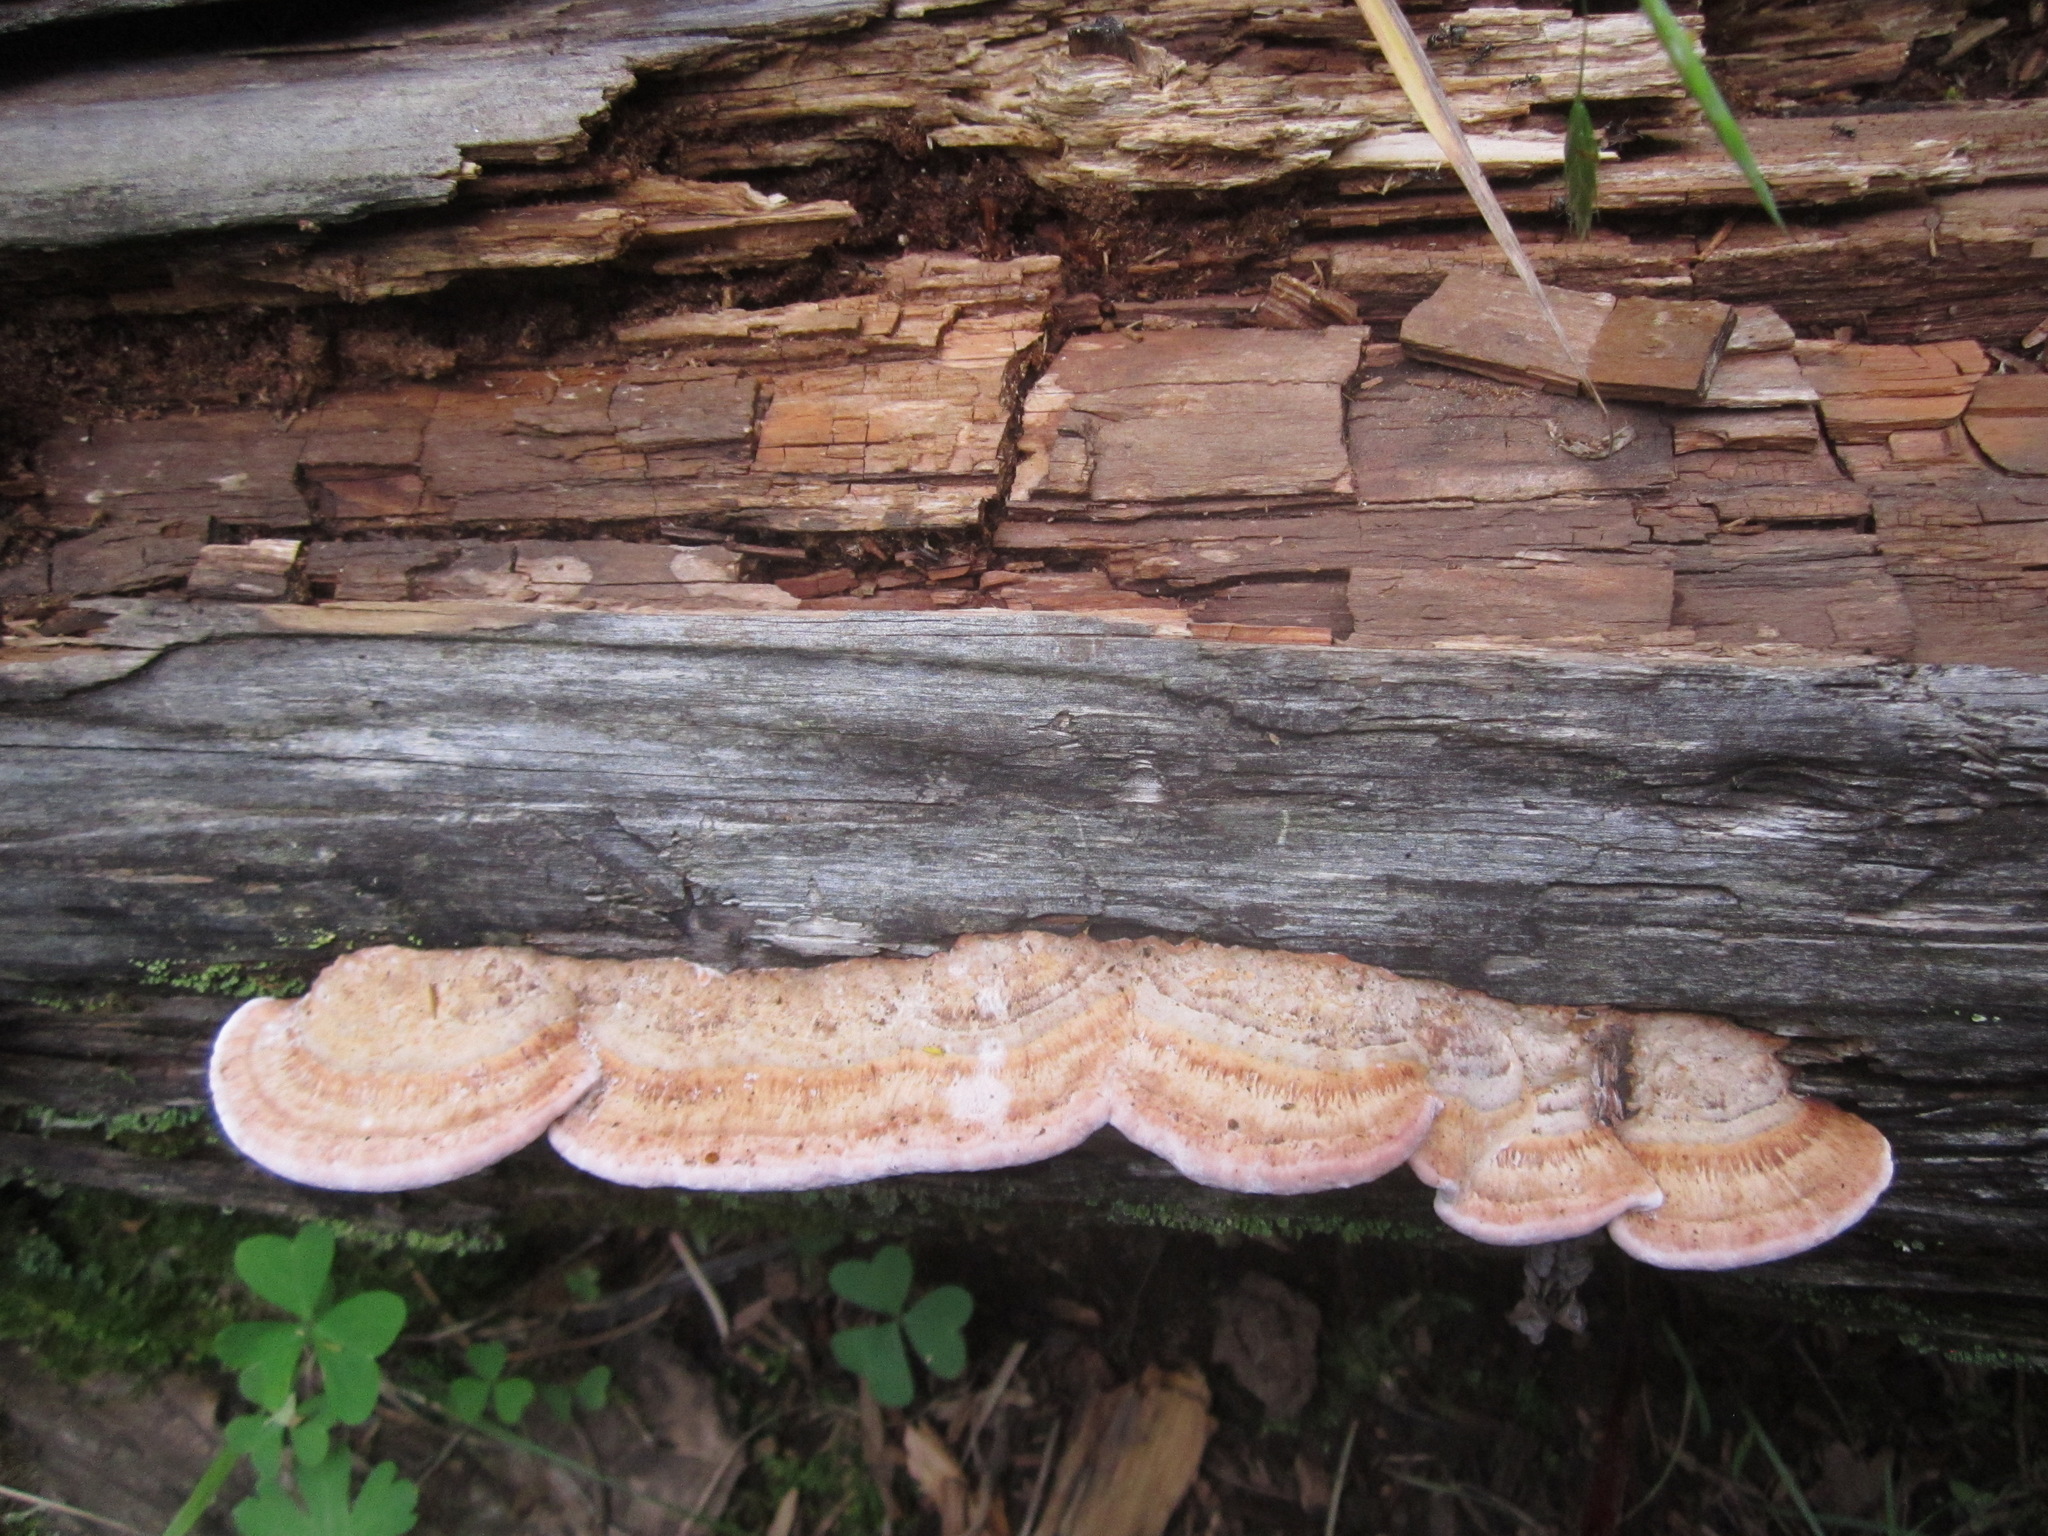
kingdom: Fungi
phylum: Basidiomycota
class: Agaricomycetes
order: Polyporales
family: Fomitopsidaceae
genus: Rhodofomes
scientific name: Rhodofomes cajanderi
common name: Rosy conk
